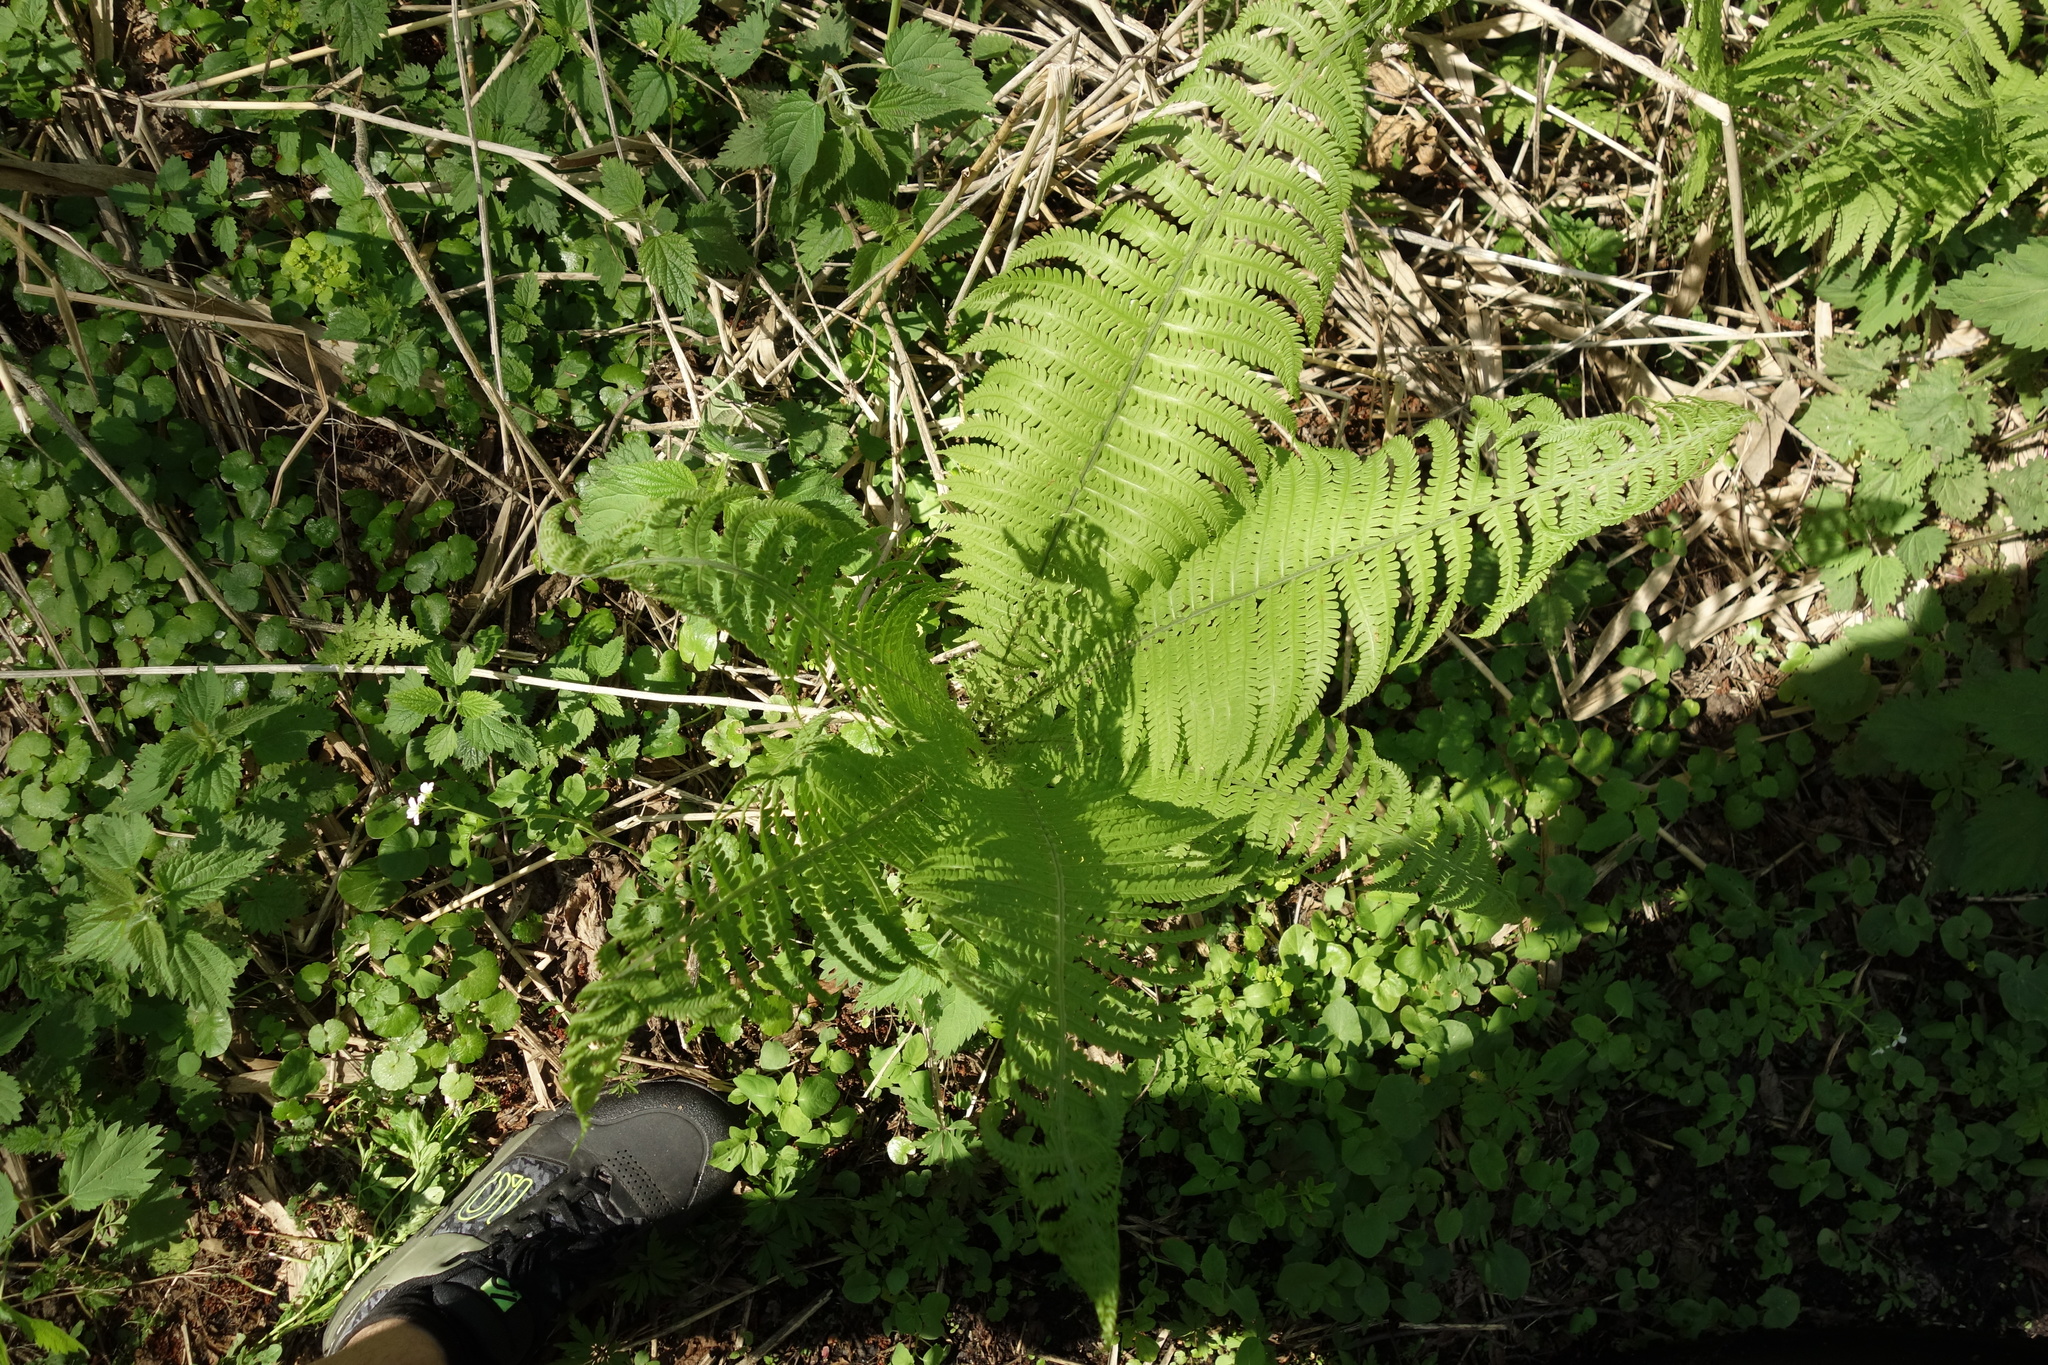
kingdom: Plantae
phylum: Tracheophyta
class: Polypodiopsida
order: Polypodiales
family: Onocleaceae
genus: Matteuccia
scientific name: Matteuccia struthiopteris
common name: Ostrich fern
